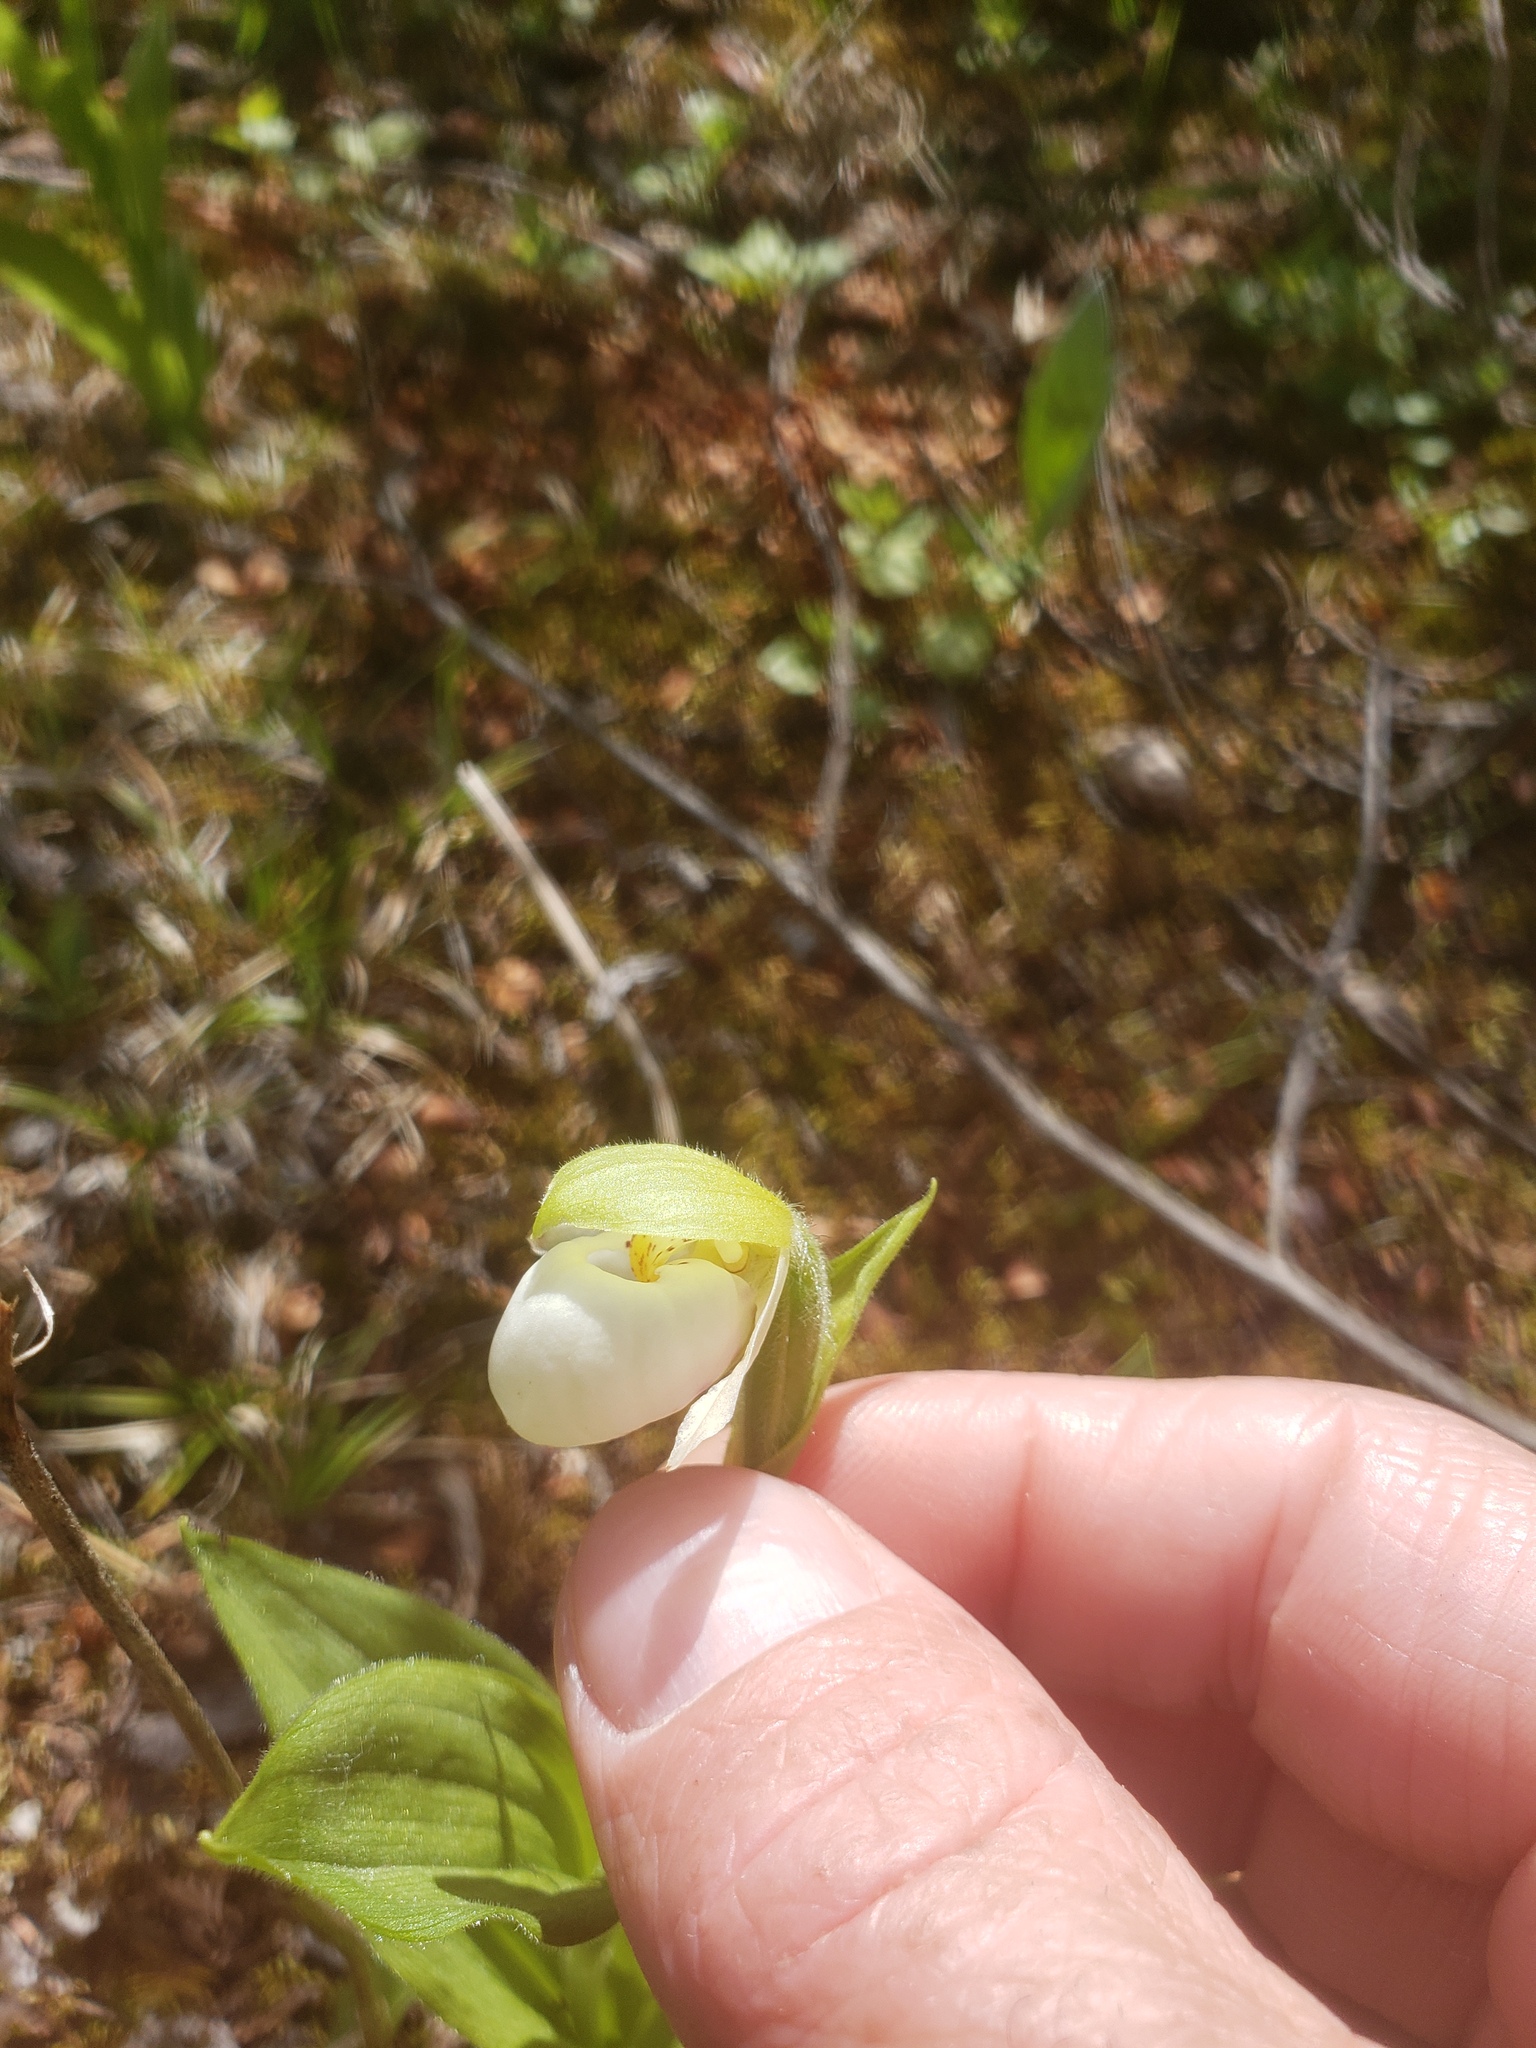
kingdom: Plantae
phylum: Tracheophyta
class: Liliopsida
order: Asparagales
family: Orchidaceae
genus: Cypripedium
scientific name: Cypripedium passerinum
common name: Sparrow's-egg lady's-slipper
